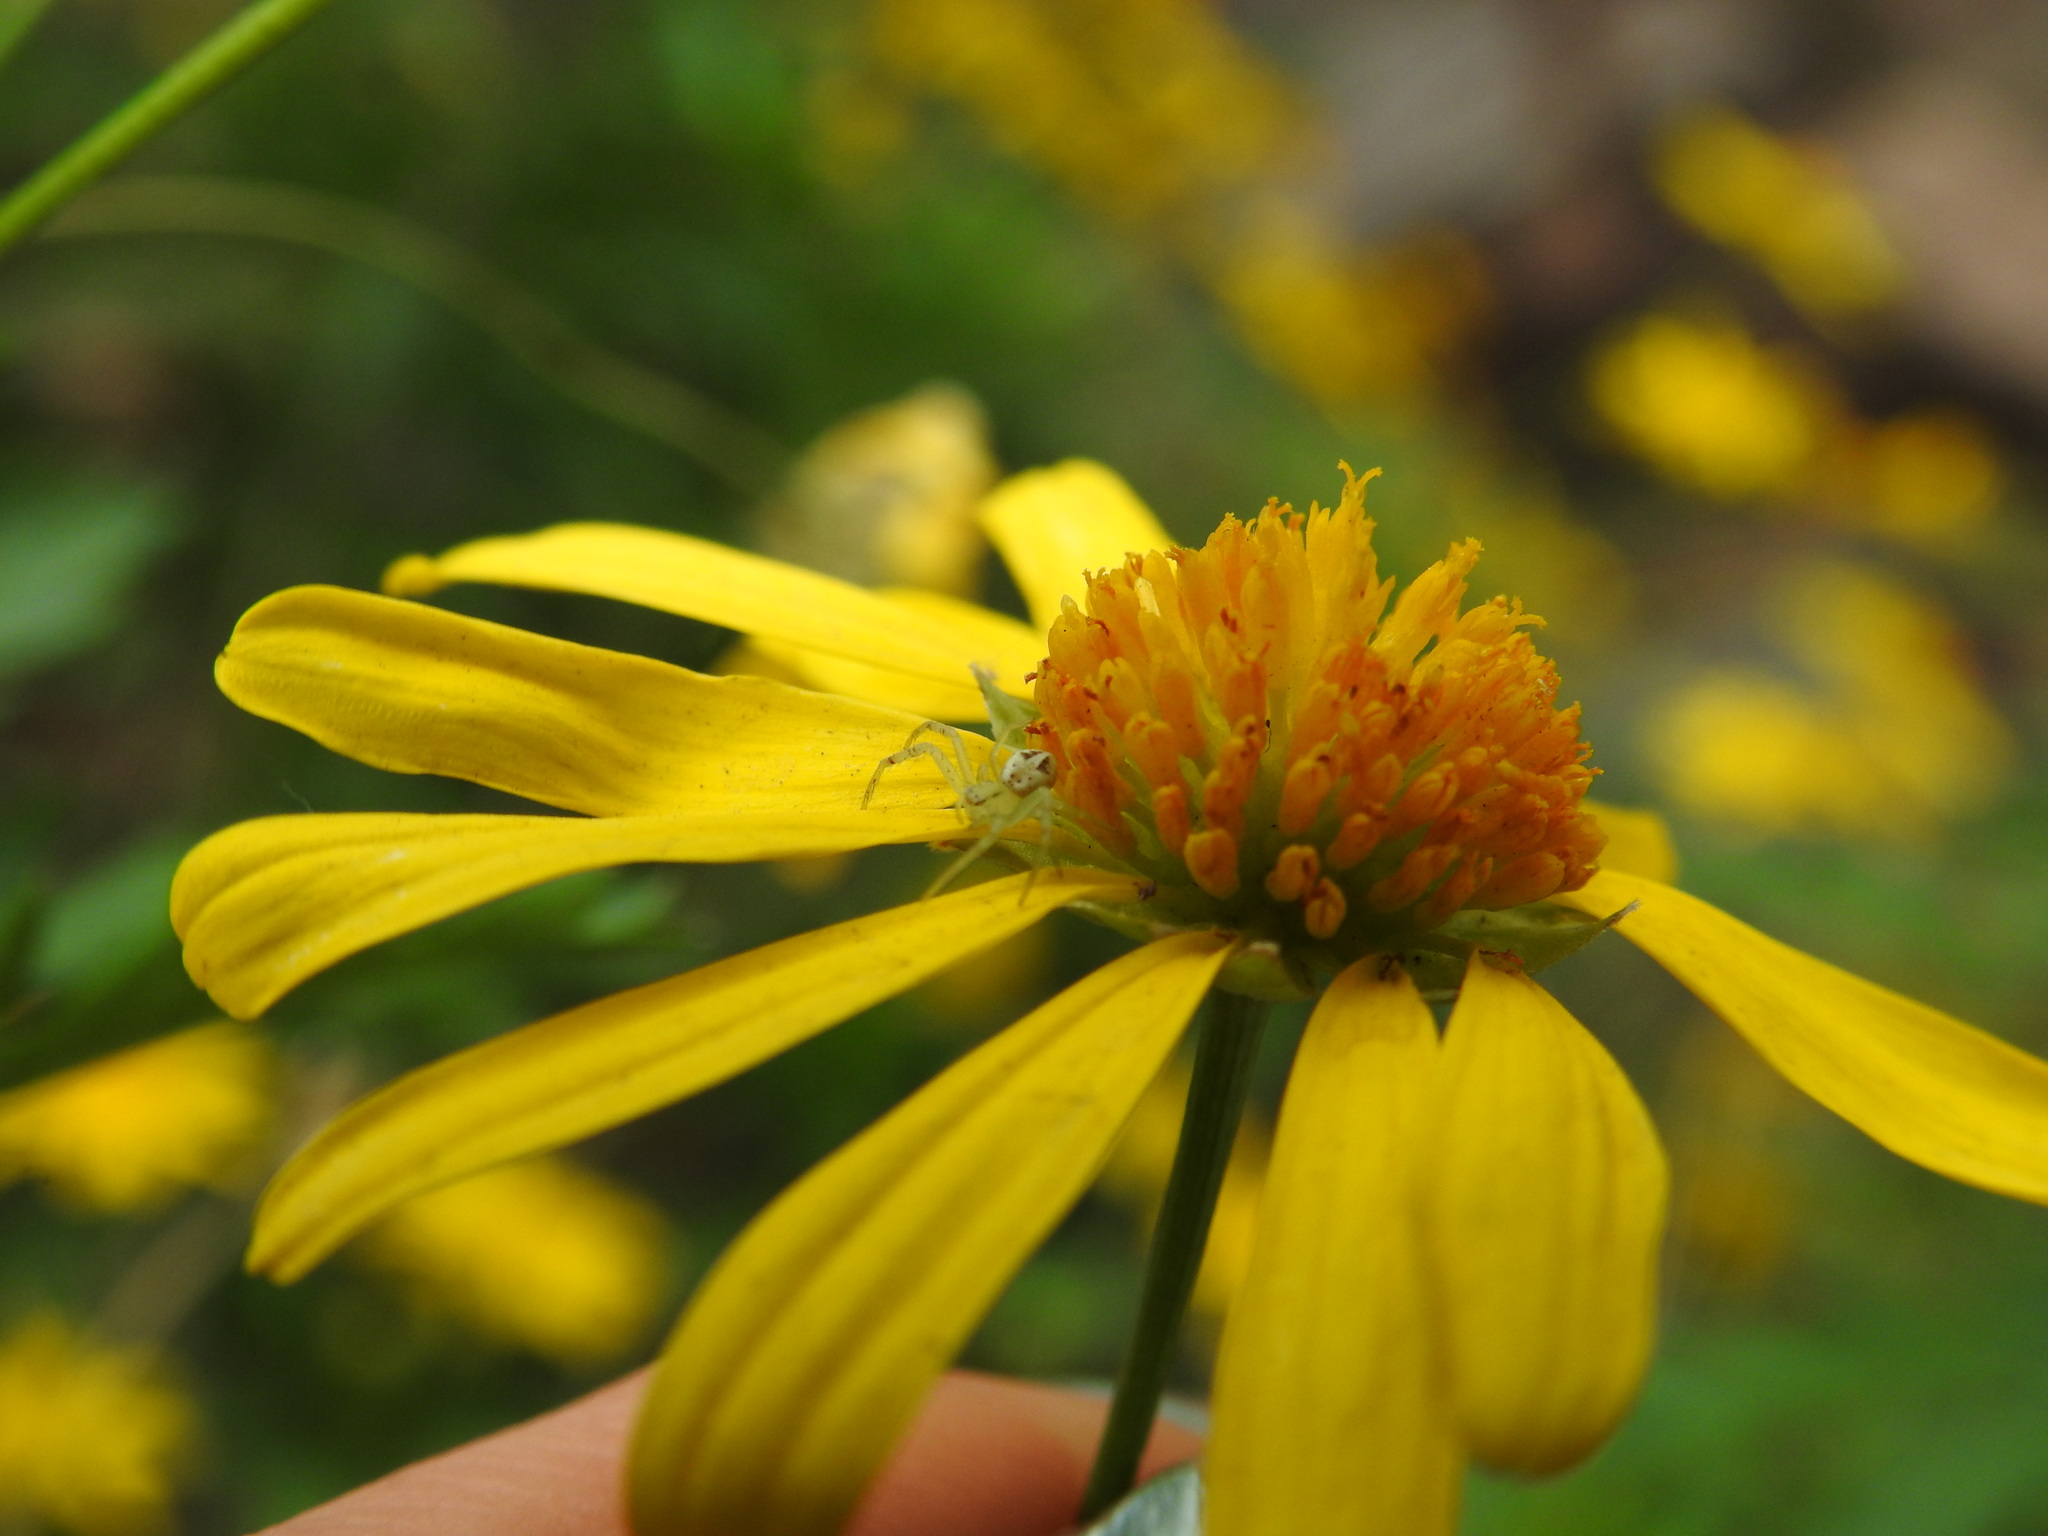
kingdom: Animalia
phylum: Arthropoda
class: Arachnida
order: Araneae
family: Thomisidae
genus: Misumenops
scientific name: Misumenops
